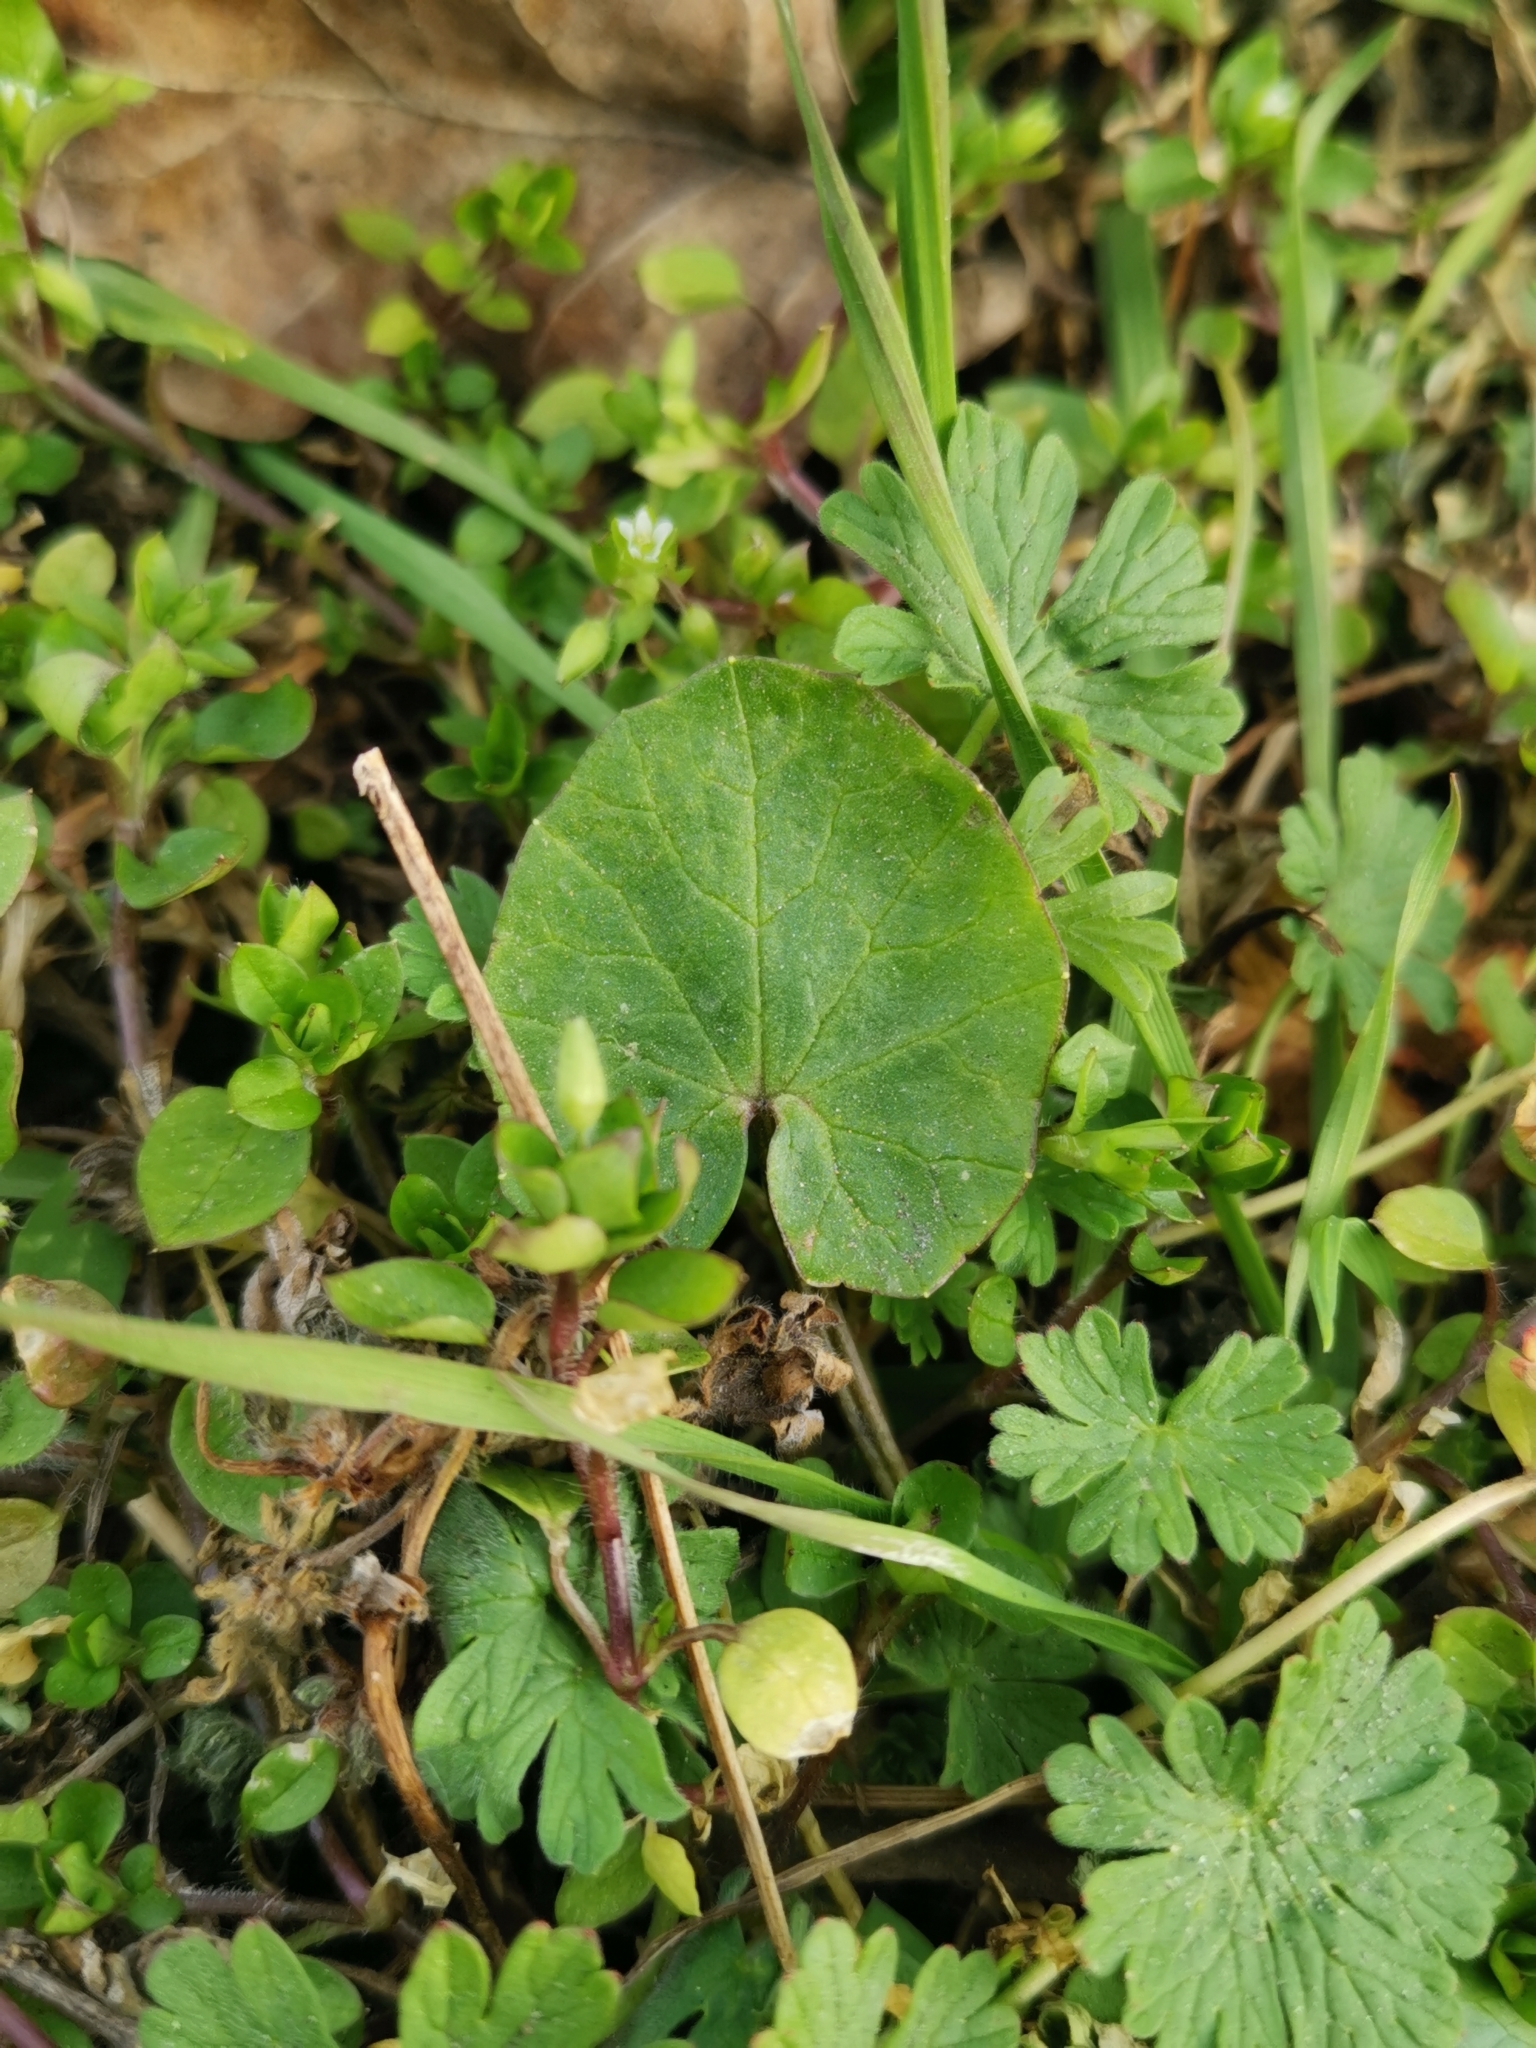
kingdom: Plantae
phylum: Tracheophyta
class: Magnoliopsida
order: Ranunculales
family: Ranunculaceae
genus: Ficaria
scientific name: Ficaria verna
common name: Lesser celandine
